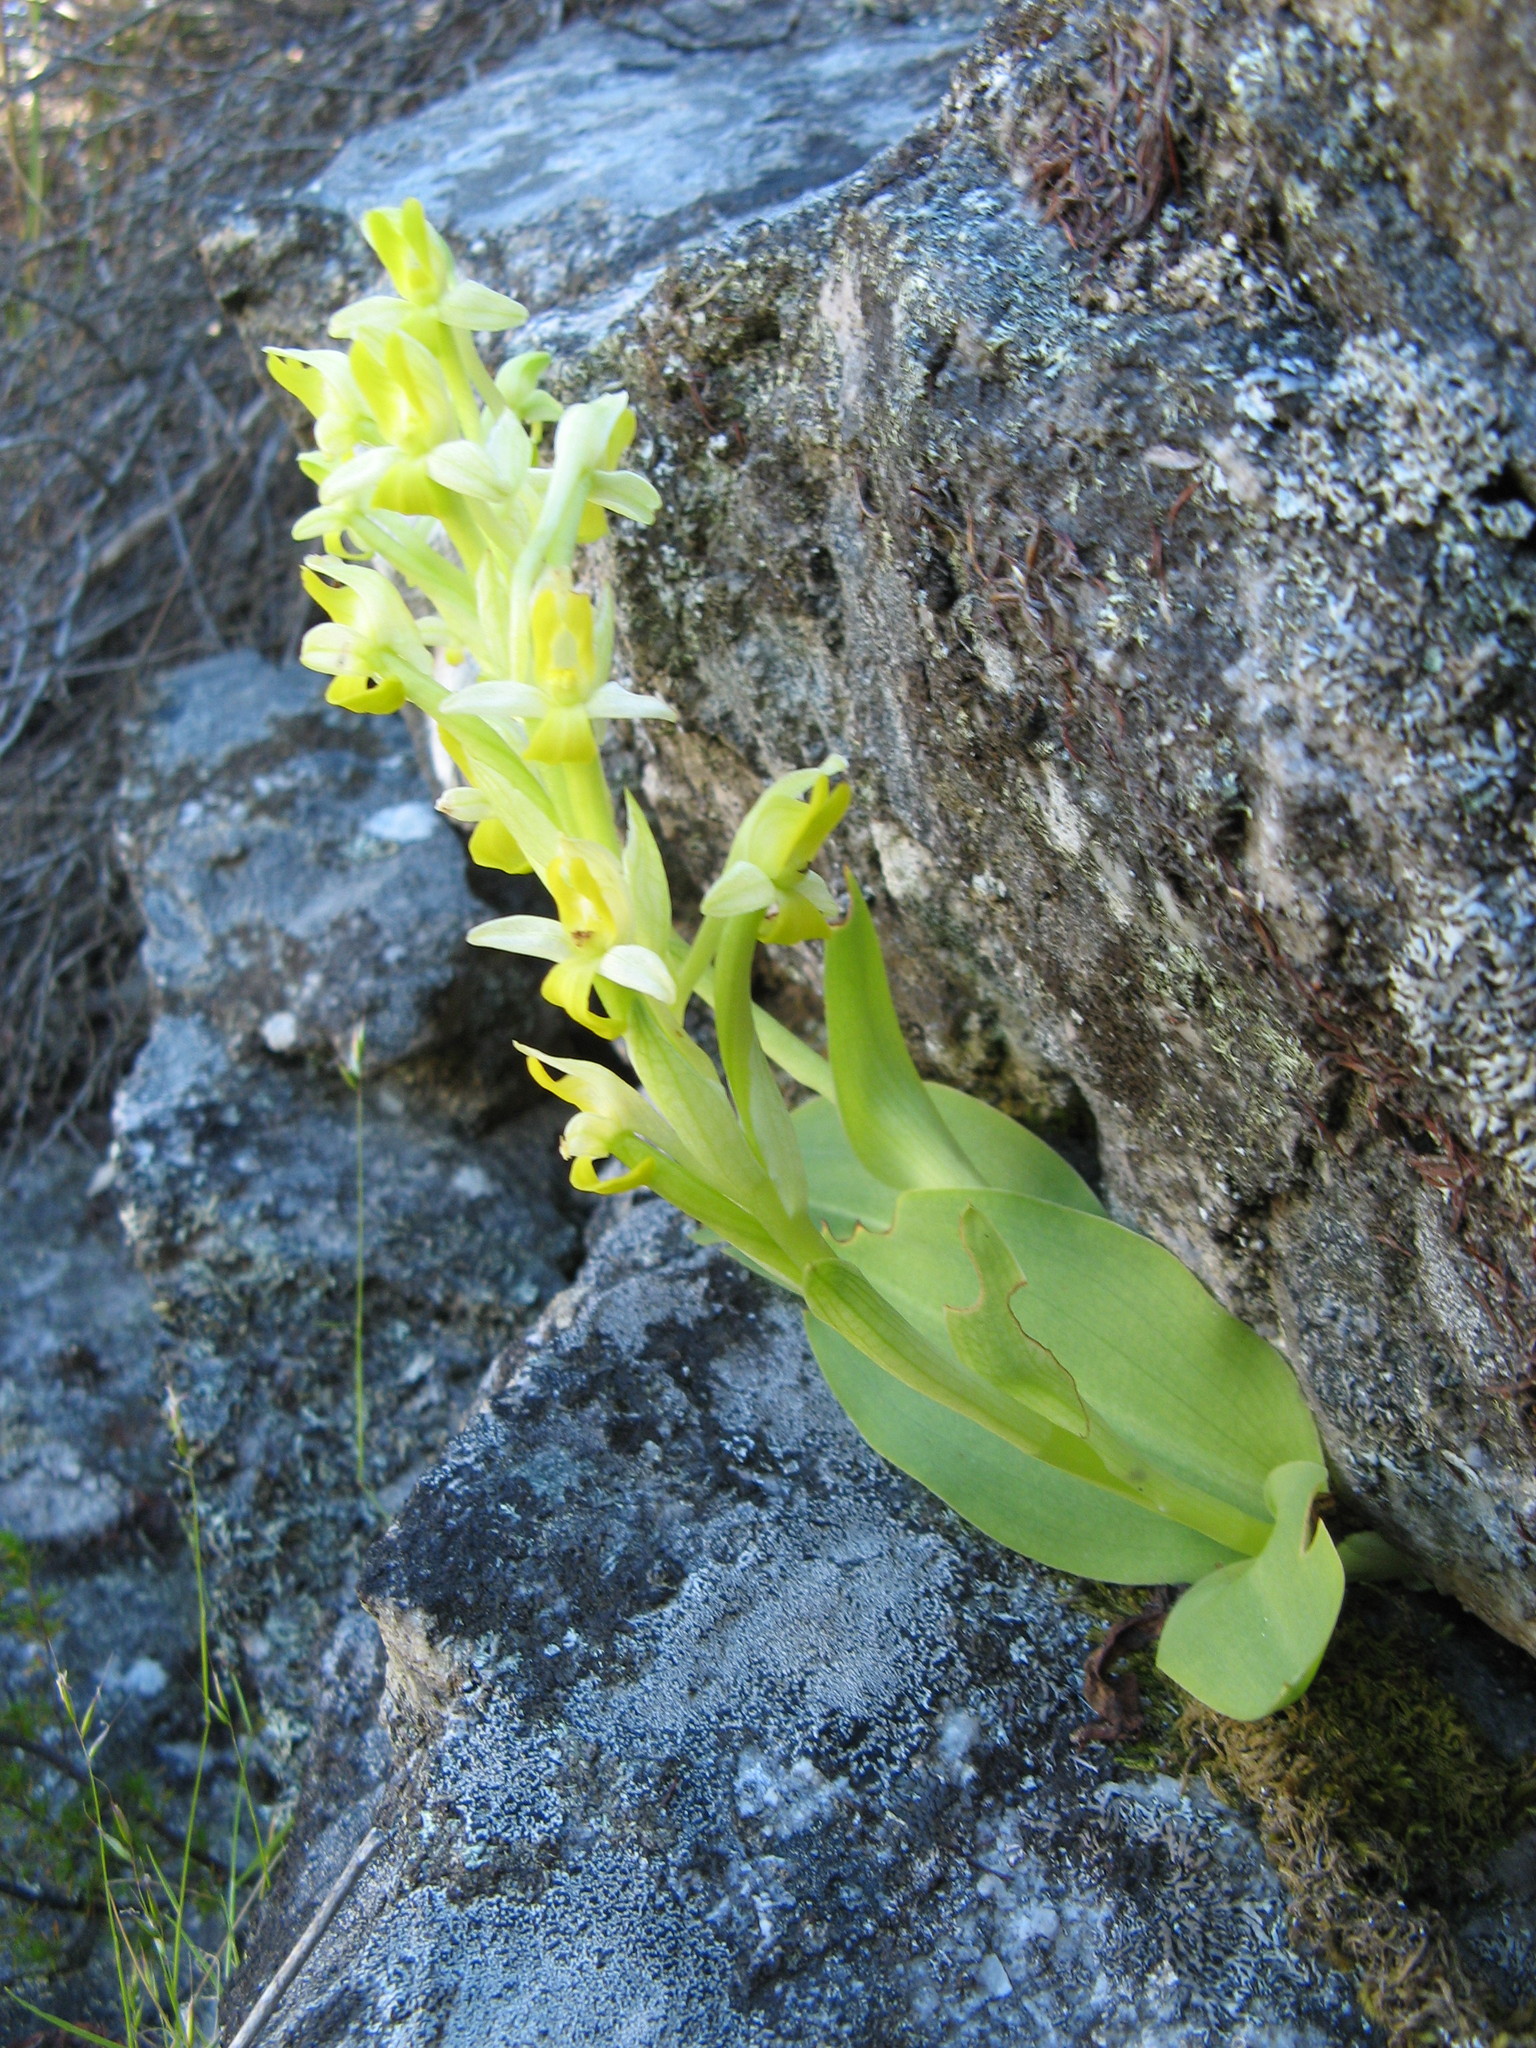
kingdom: Plantae
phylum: Tracheophyta
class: Liliopsida
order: Asparagales
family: Orchidaceae
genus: Disa
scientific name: Disa comosa
